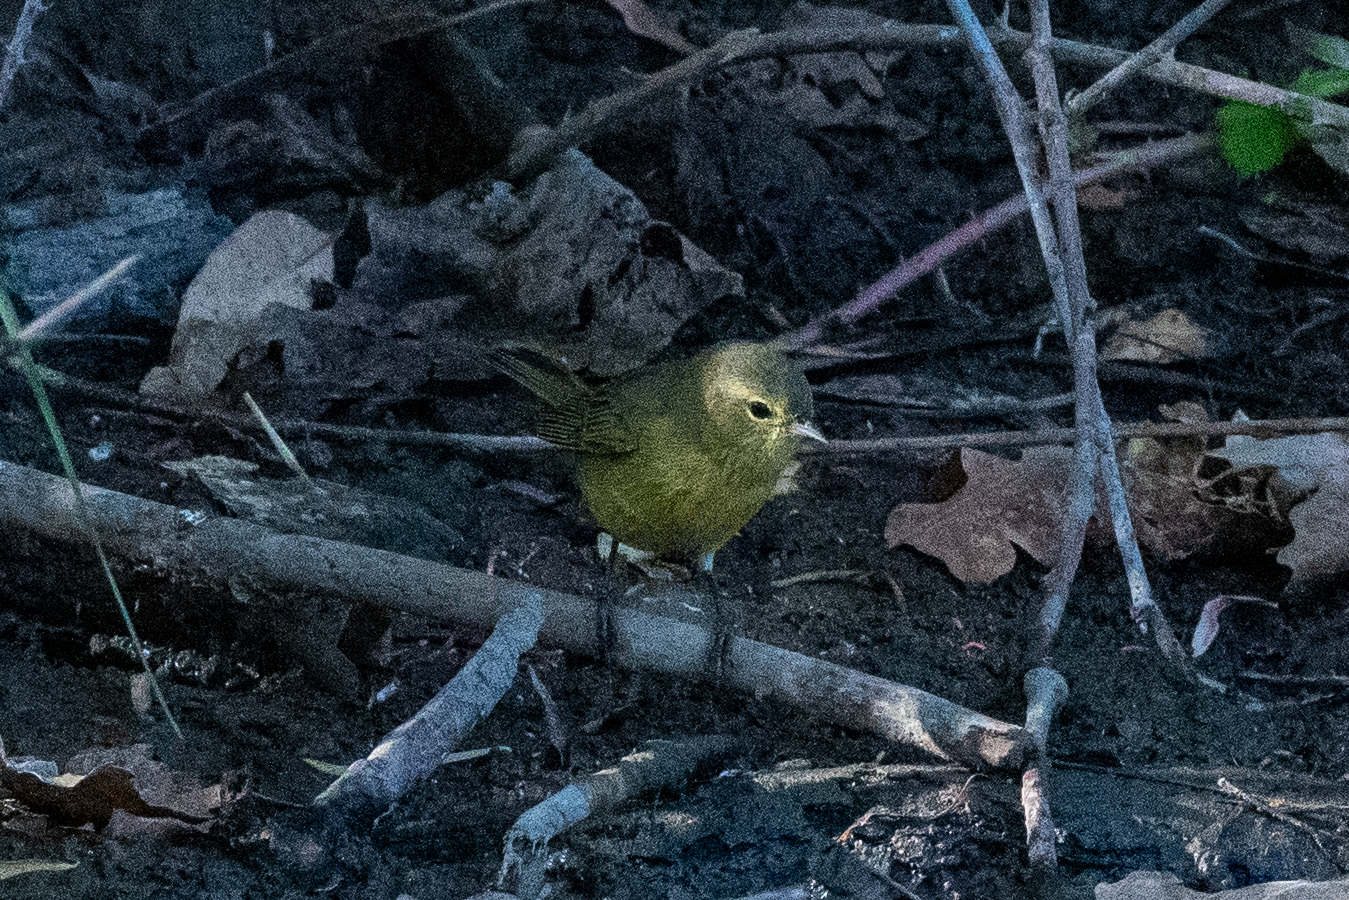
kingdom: Animalia
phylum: Chordata
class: Aves
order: Passeriformes
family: Parulidae
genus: Leiothlypis
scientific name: Leiothlypis celata
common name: Orange-crowned warbler
